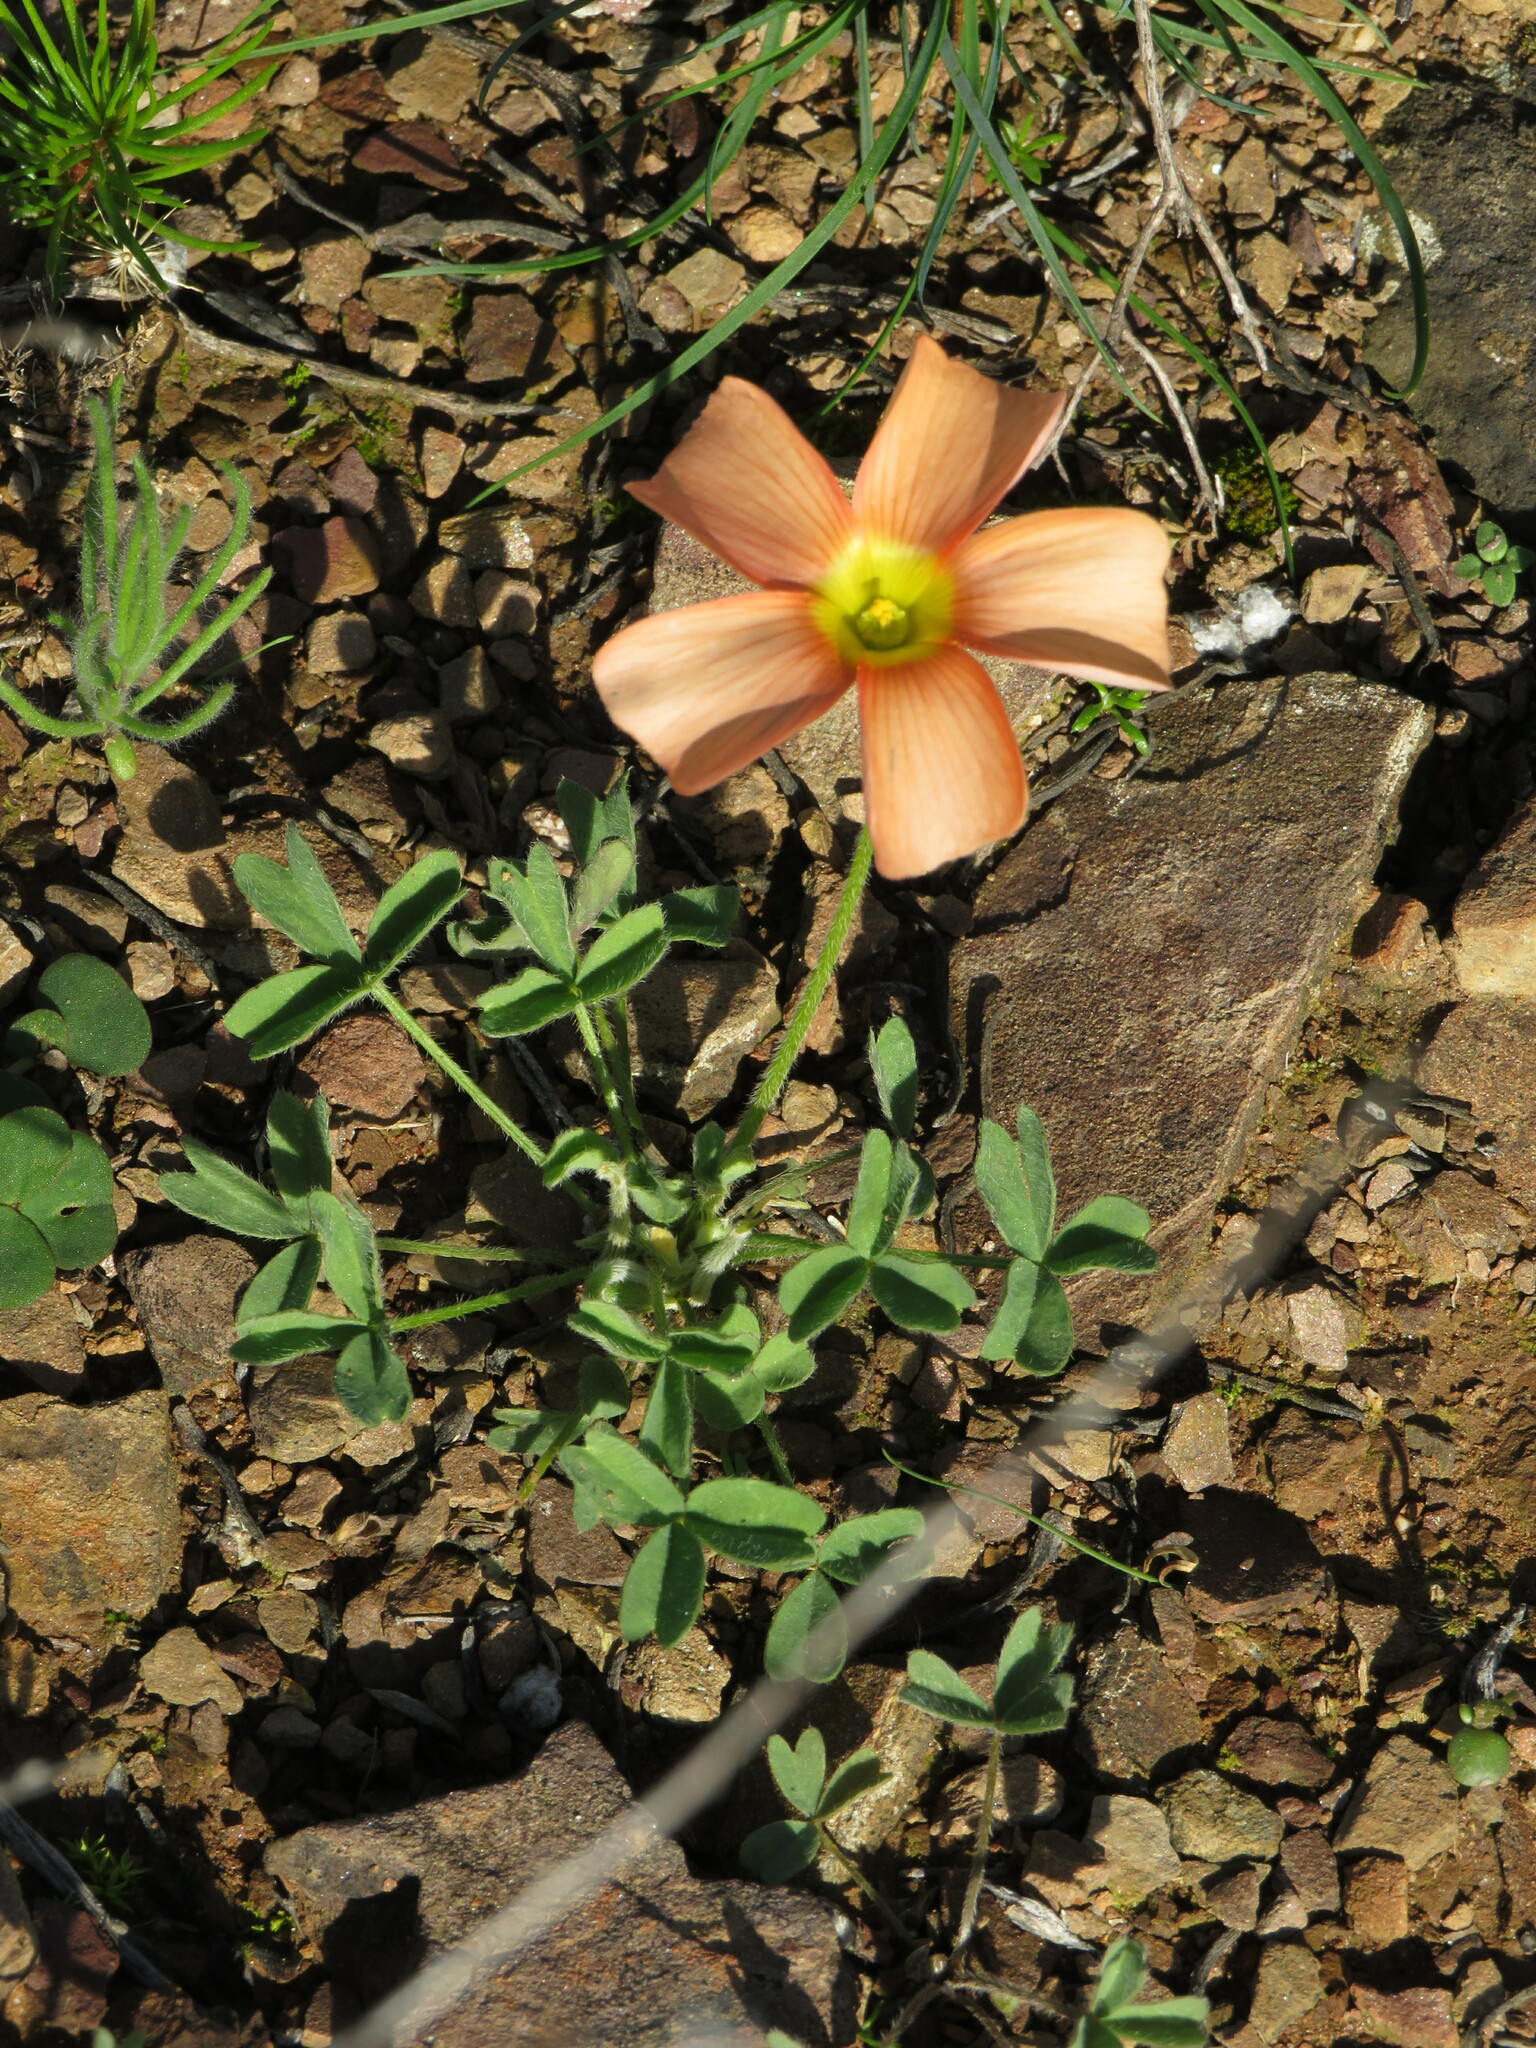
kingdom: Plantae
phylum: Tracheophyta
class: Magnoliopsida
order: Oxalidales
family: Oxalidaceae
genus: Oxalis
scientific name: Oxalis obtusa
